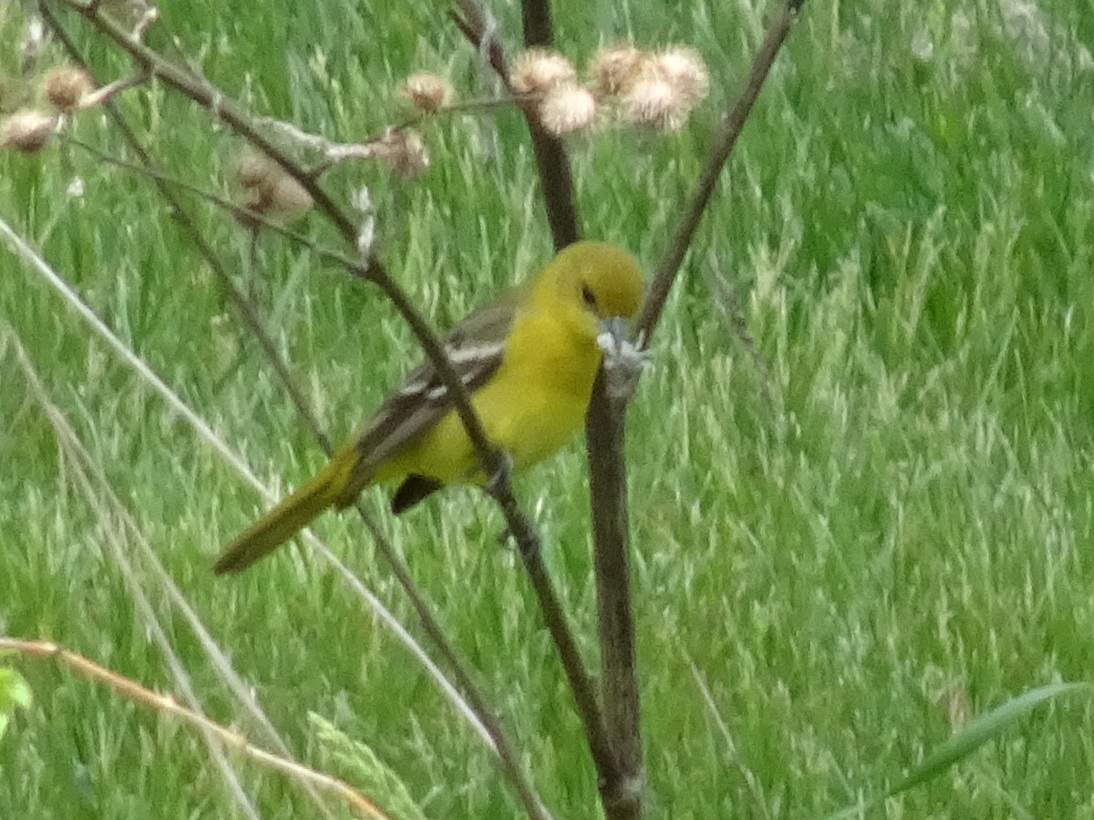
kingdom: Animalia
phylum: Chordata
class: Aves
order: Passeriformes
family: Icteridae
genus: Icterus
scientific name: Icterus spurius
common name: Orchard oriole
